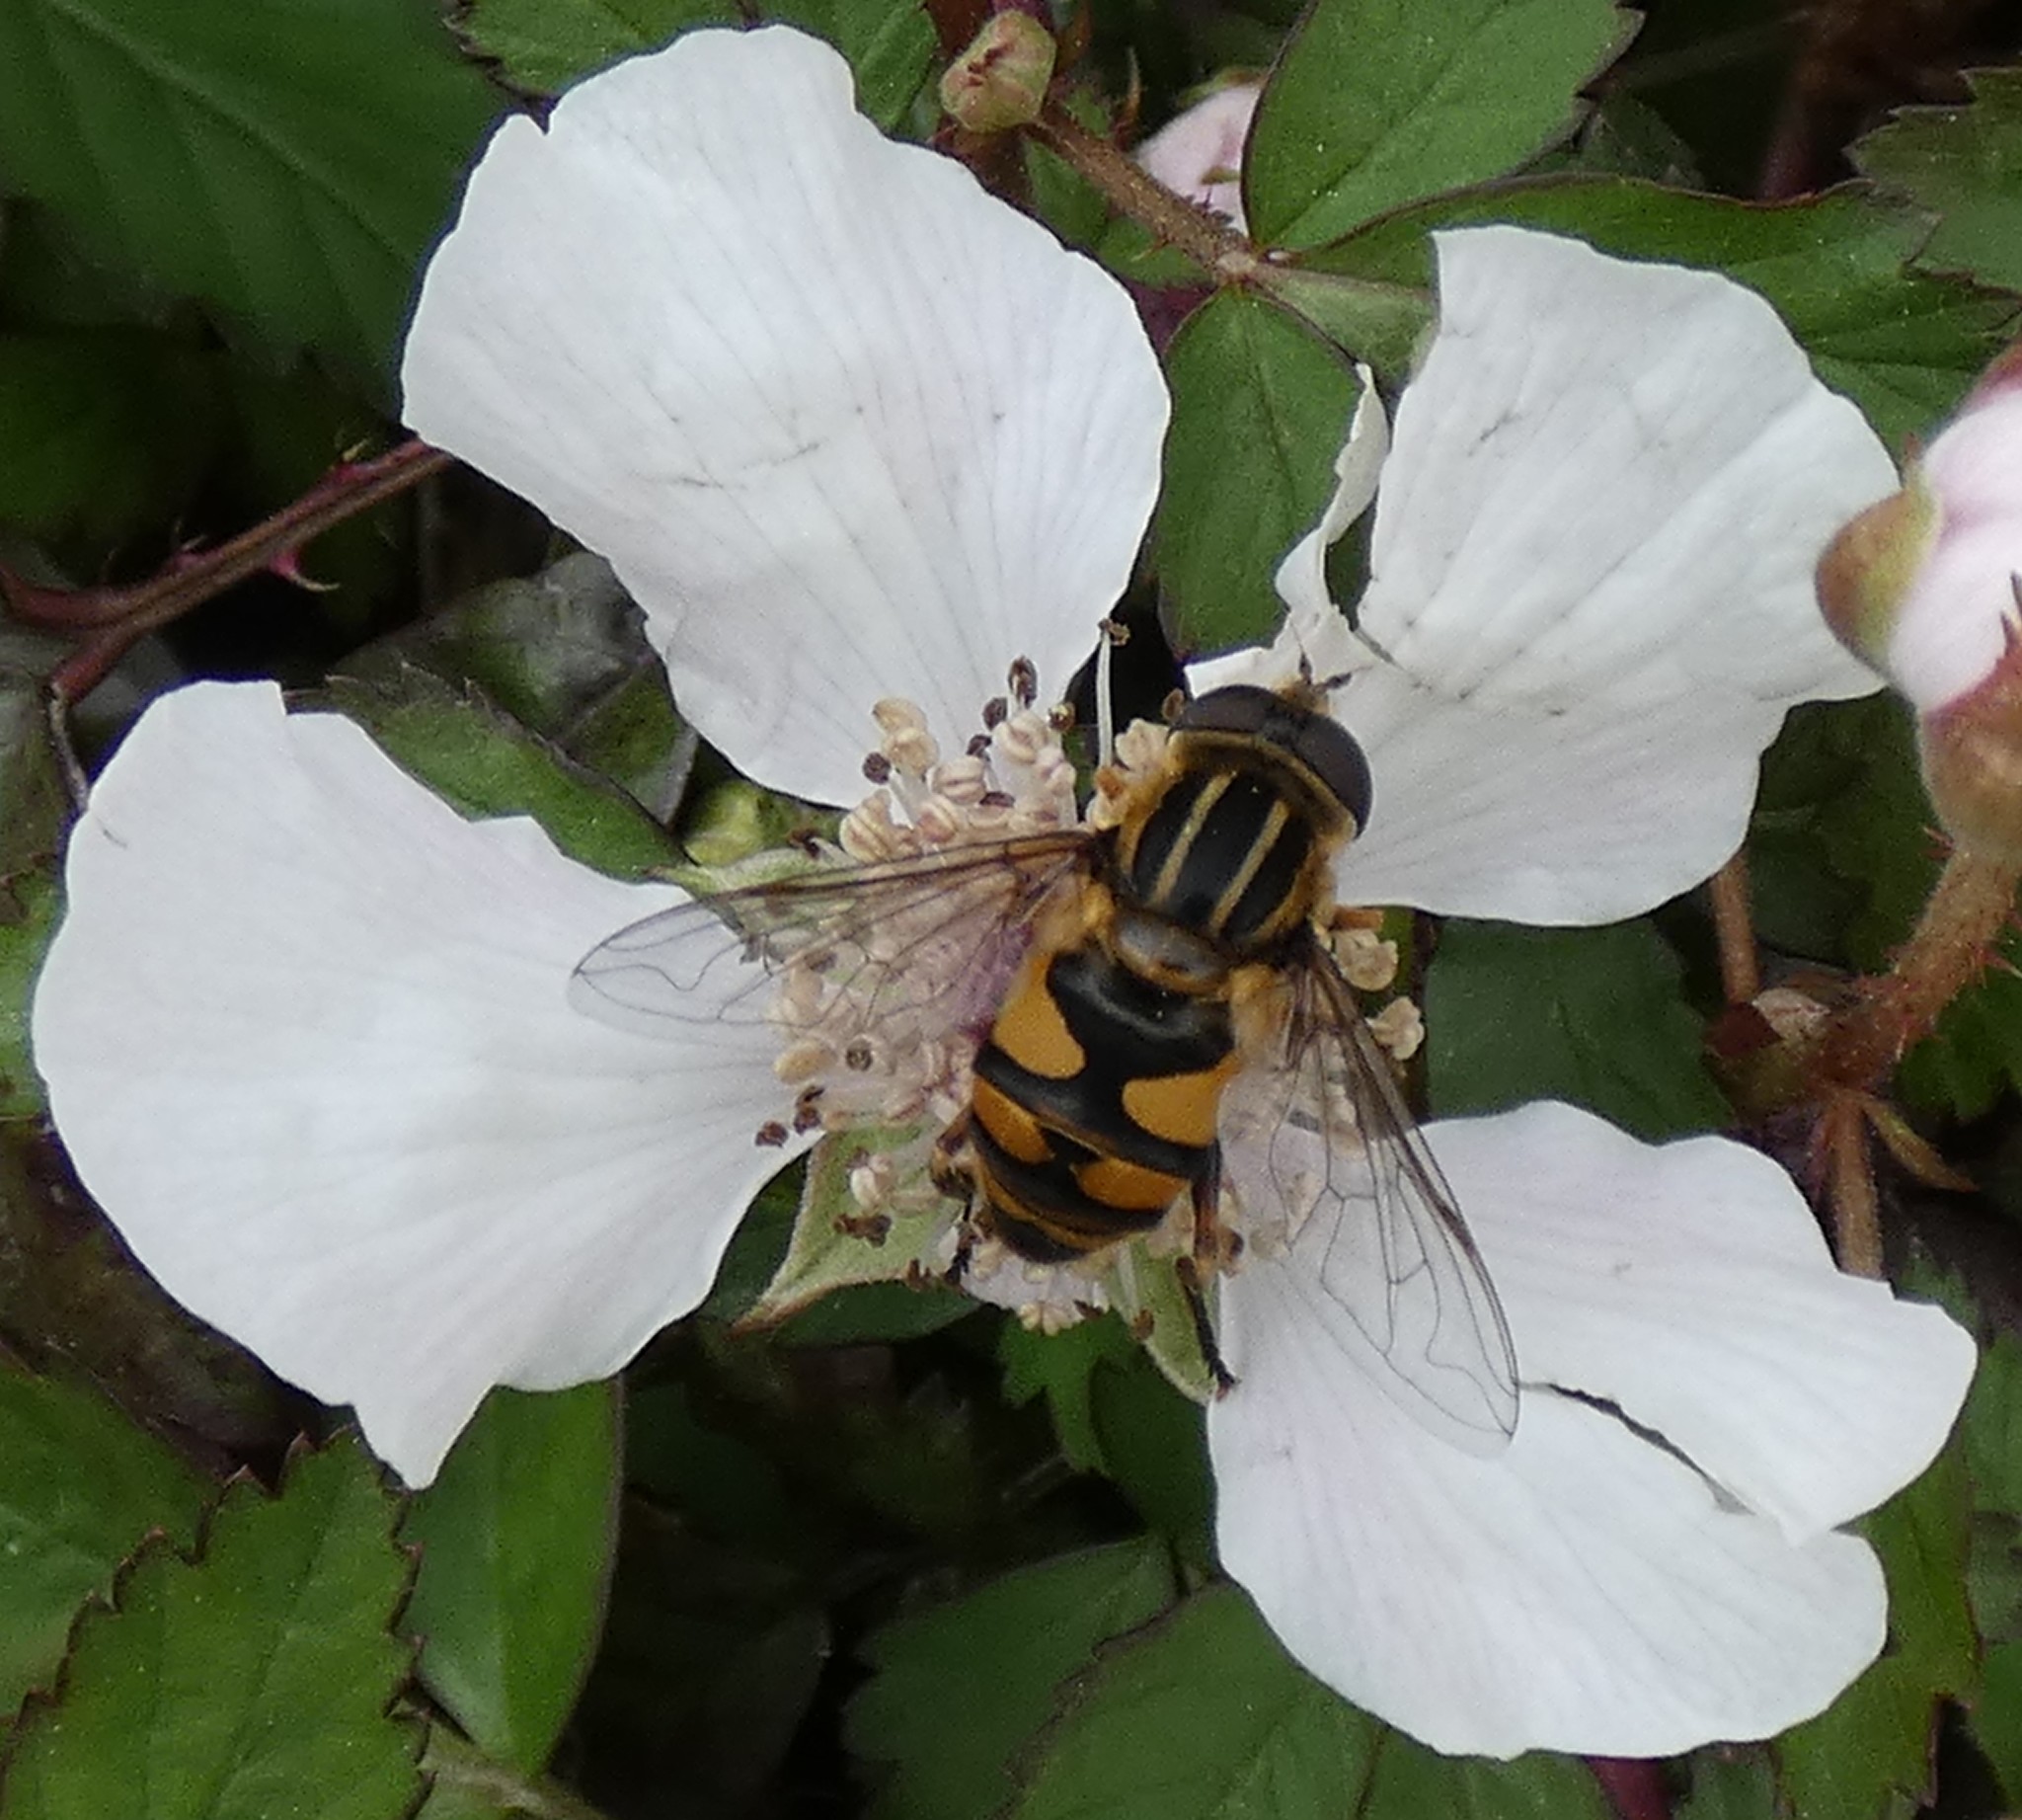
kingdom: Animalia
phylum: Arthropoda
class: Insecta
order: Diptera
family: Syrphidae
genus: Helophilus
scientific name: Helophilus fasciatus
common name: Narrow-headed marsh fly
